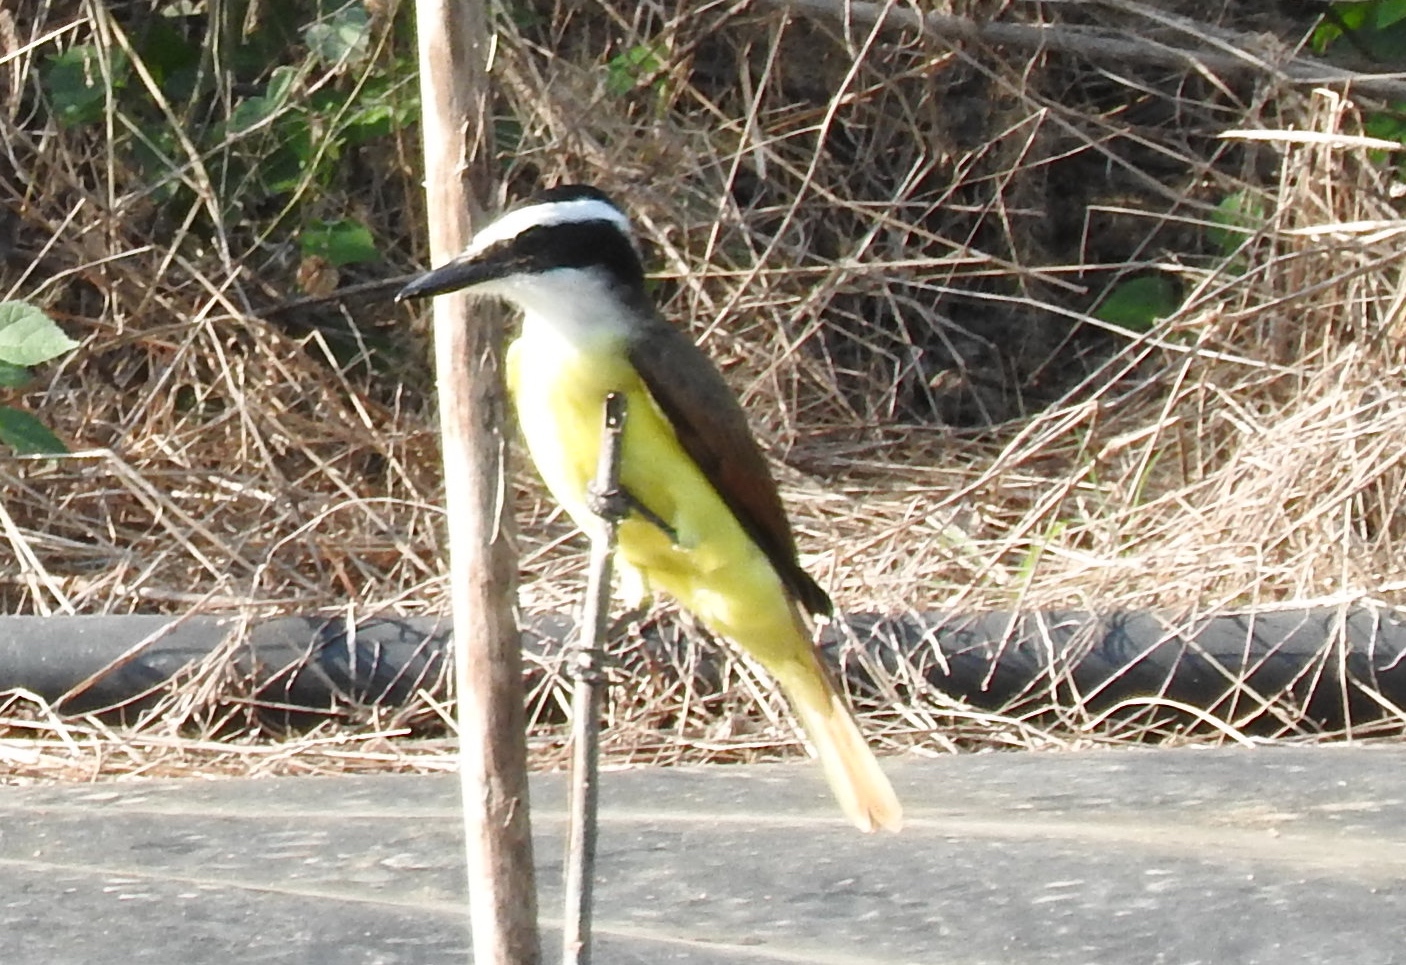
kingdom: Animalia
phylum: Chordata
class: Aves
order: Passeriformes
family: Tyrannidae
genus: Pitangus
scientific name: Pitangus sulphuratus
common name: Great kiskadee
